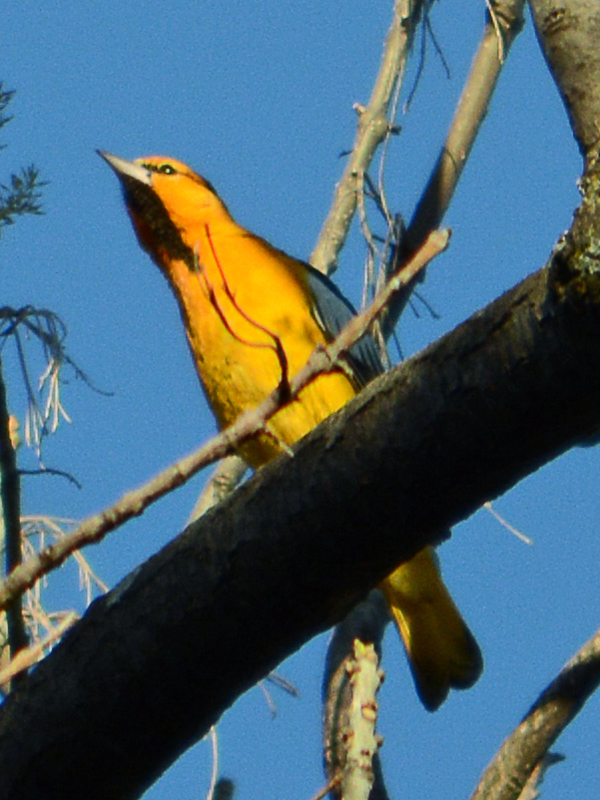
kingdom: Animalia
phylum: Chordata
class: Aves
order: Passeriformes
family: Icteridae
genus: Icterus
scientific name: Icterus bullockii
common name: Bullock's oriole
